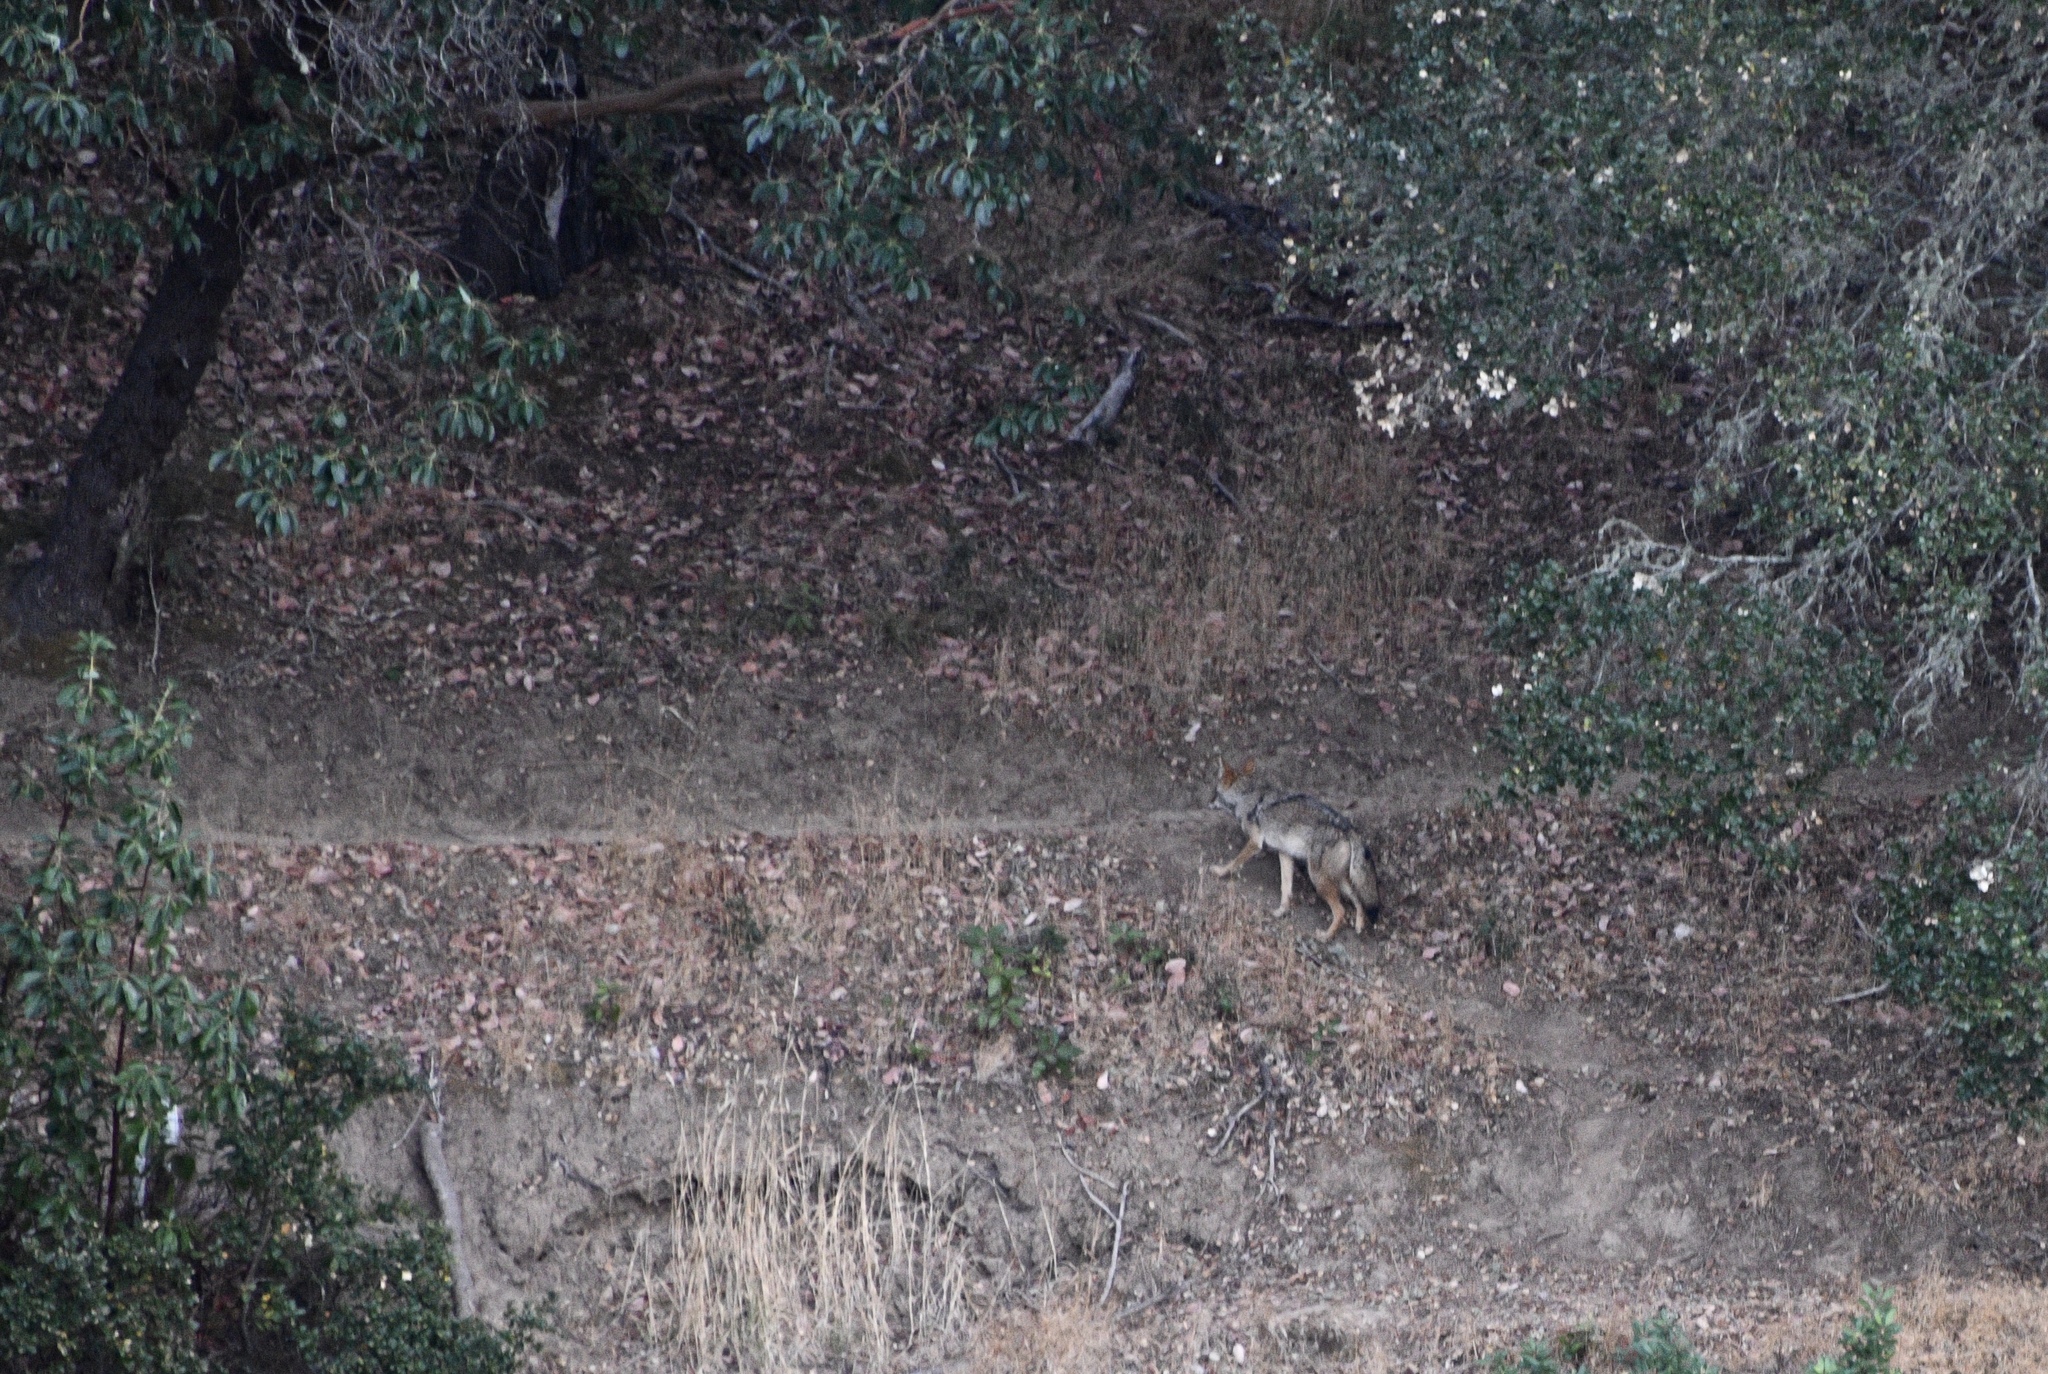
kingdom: Animalia
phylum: Chordata
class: Mammalia
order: Carnivora
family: Canidae
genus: Canis
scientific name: Canis latrans
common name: Coyote
